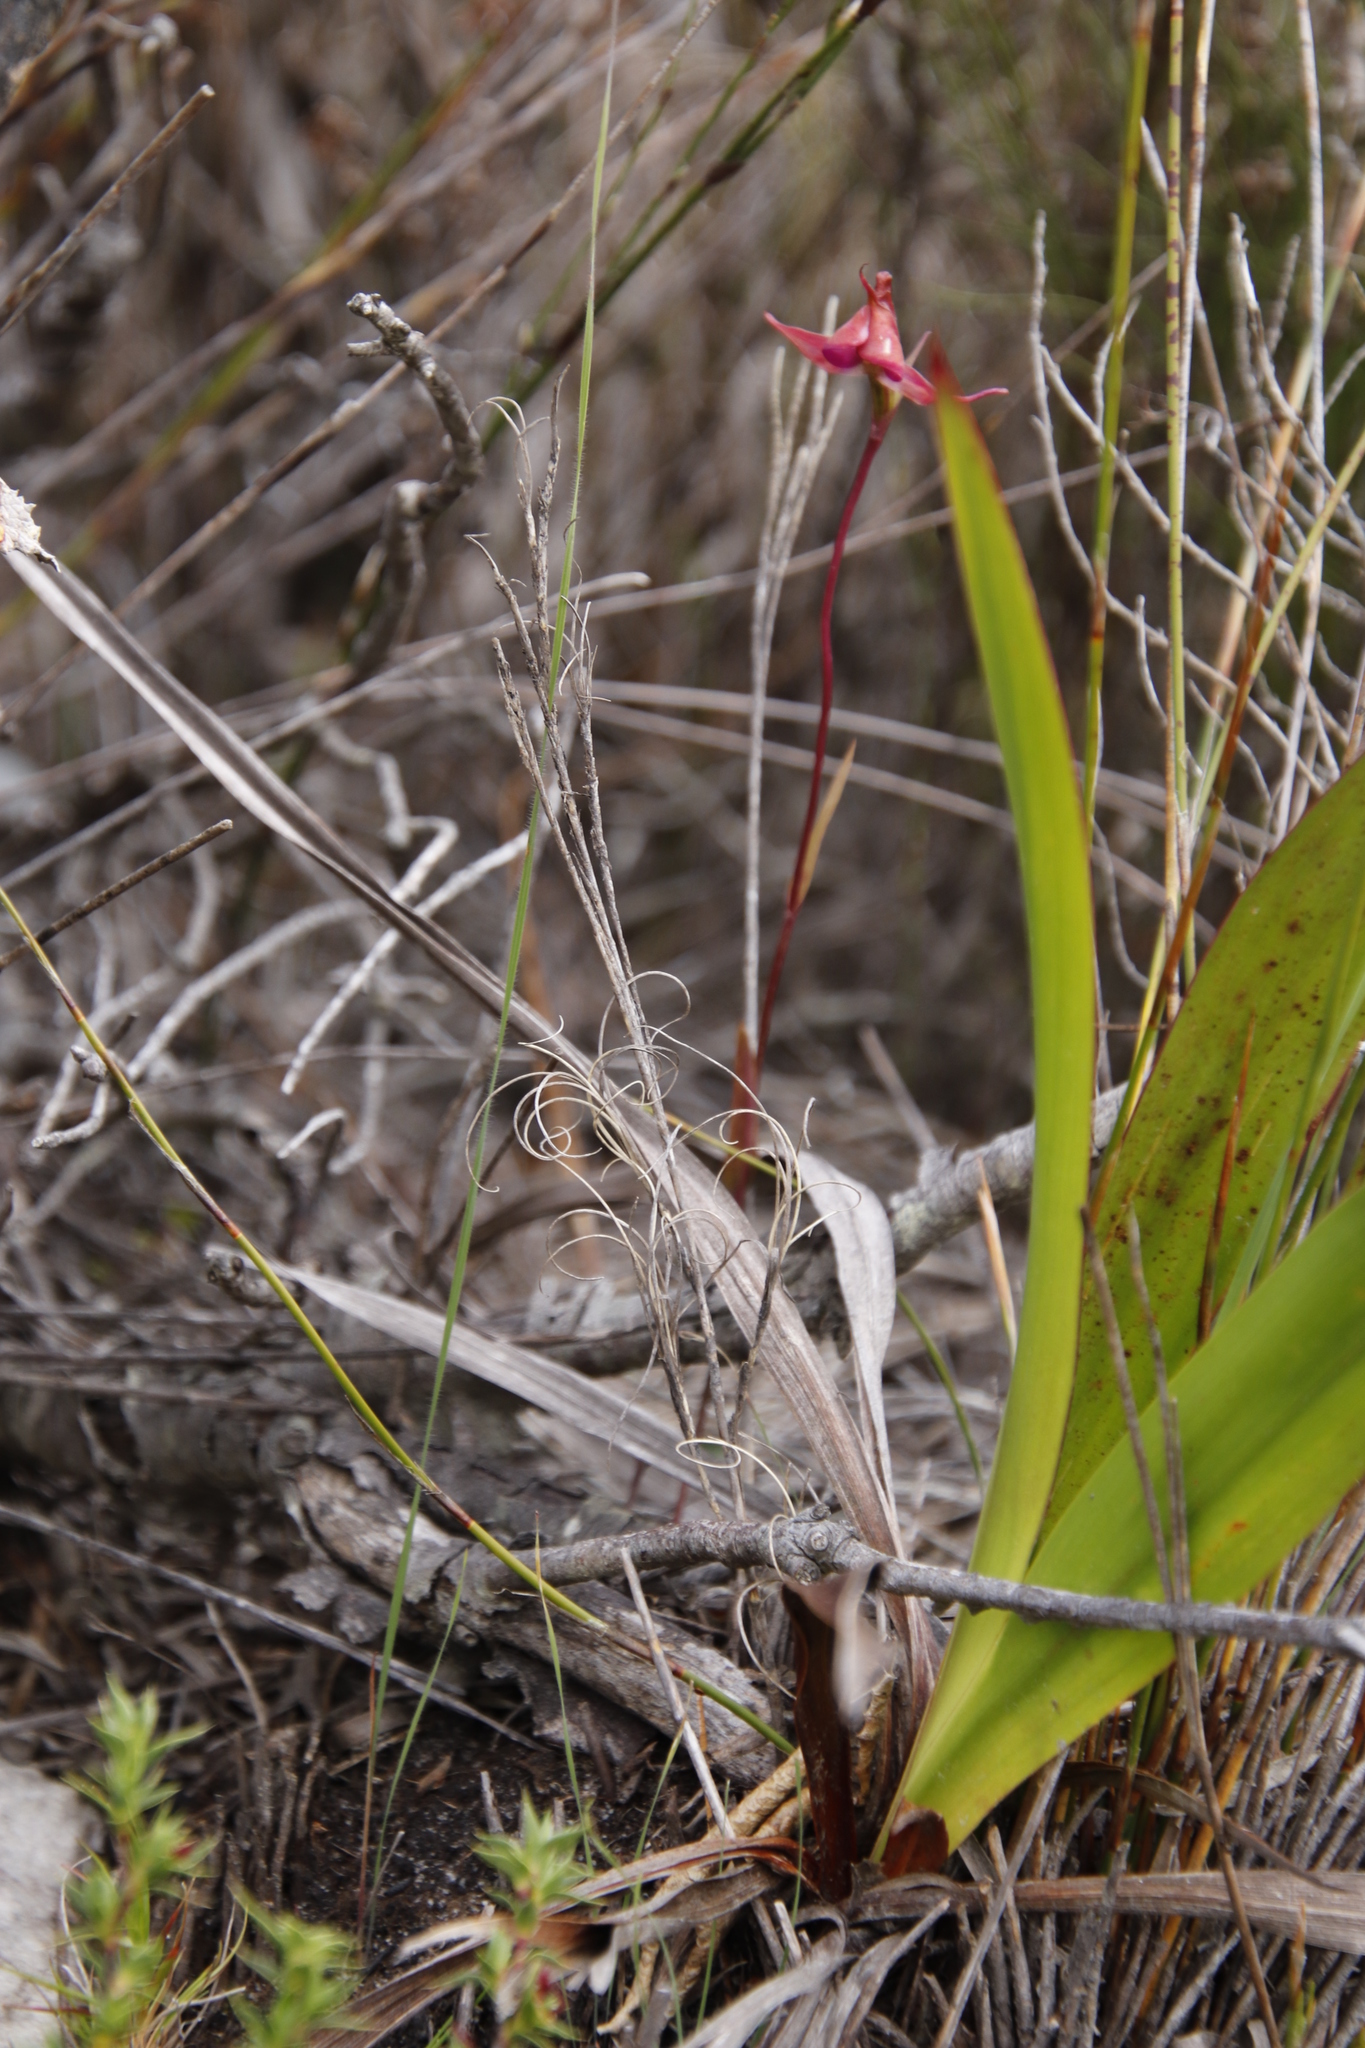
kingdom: Plantae
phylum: Tracheophyta
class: Liliopsida
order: Asparagales
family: Orchidaceae
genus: Disperis
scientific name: Disperis capensis
